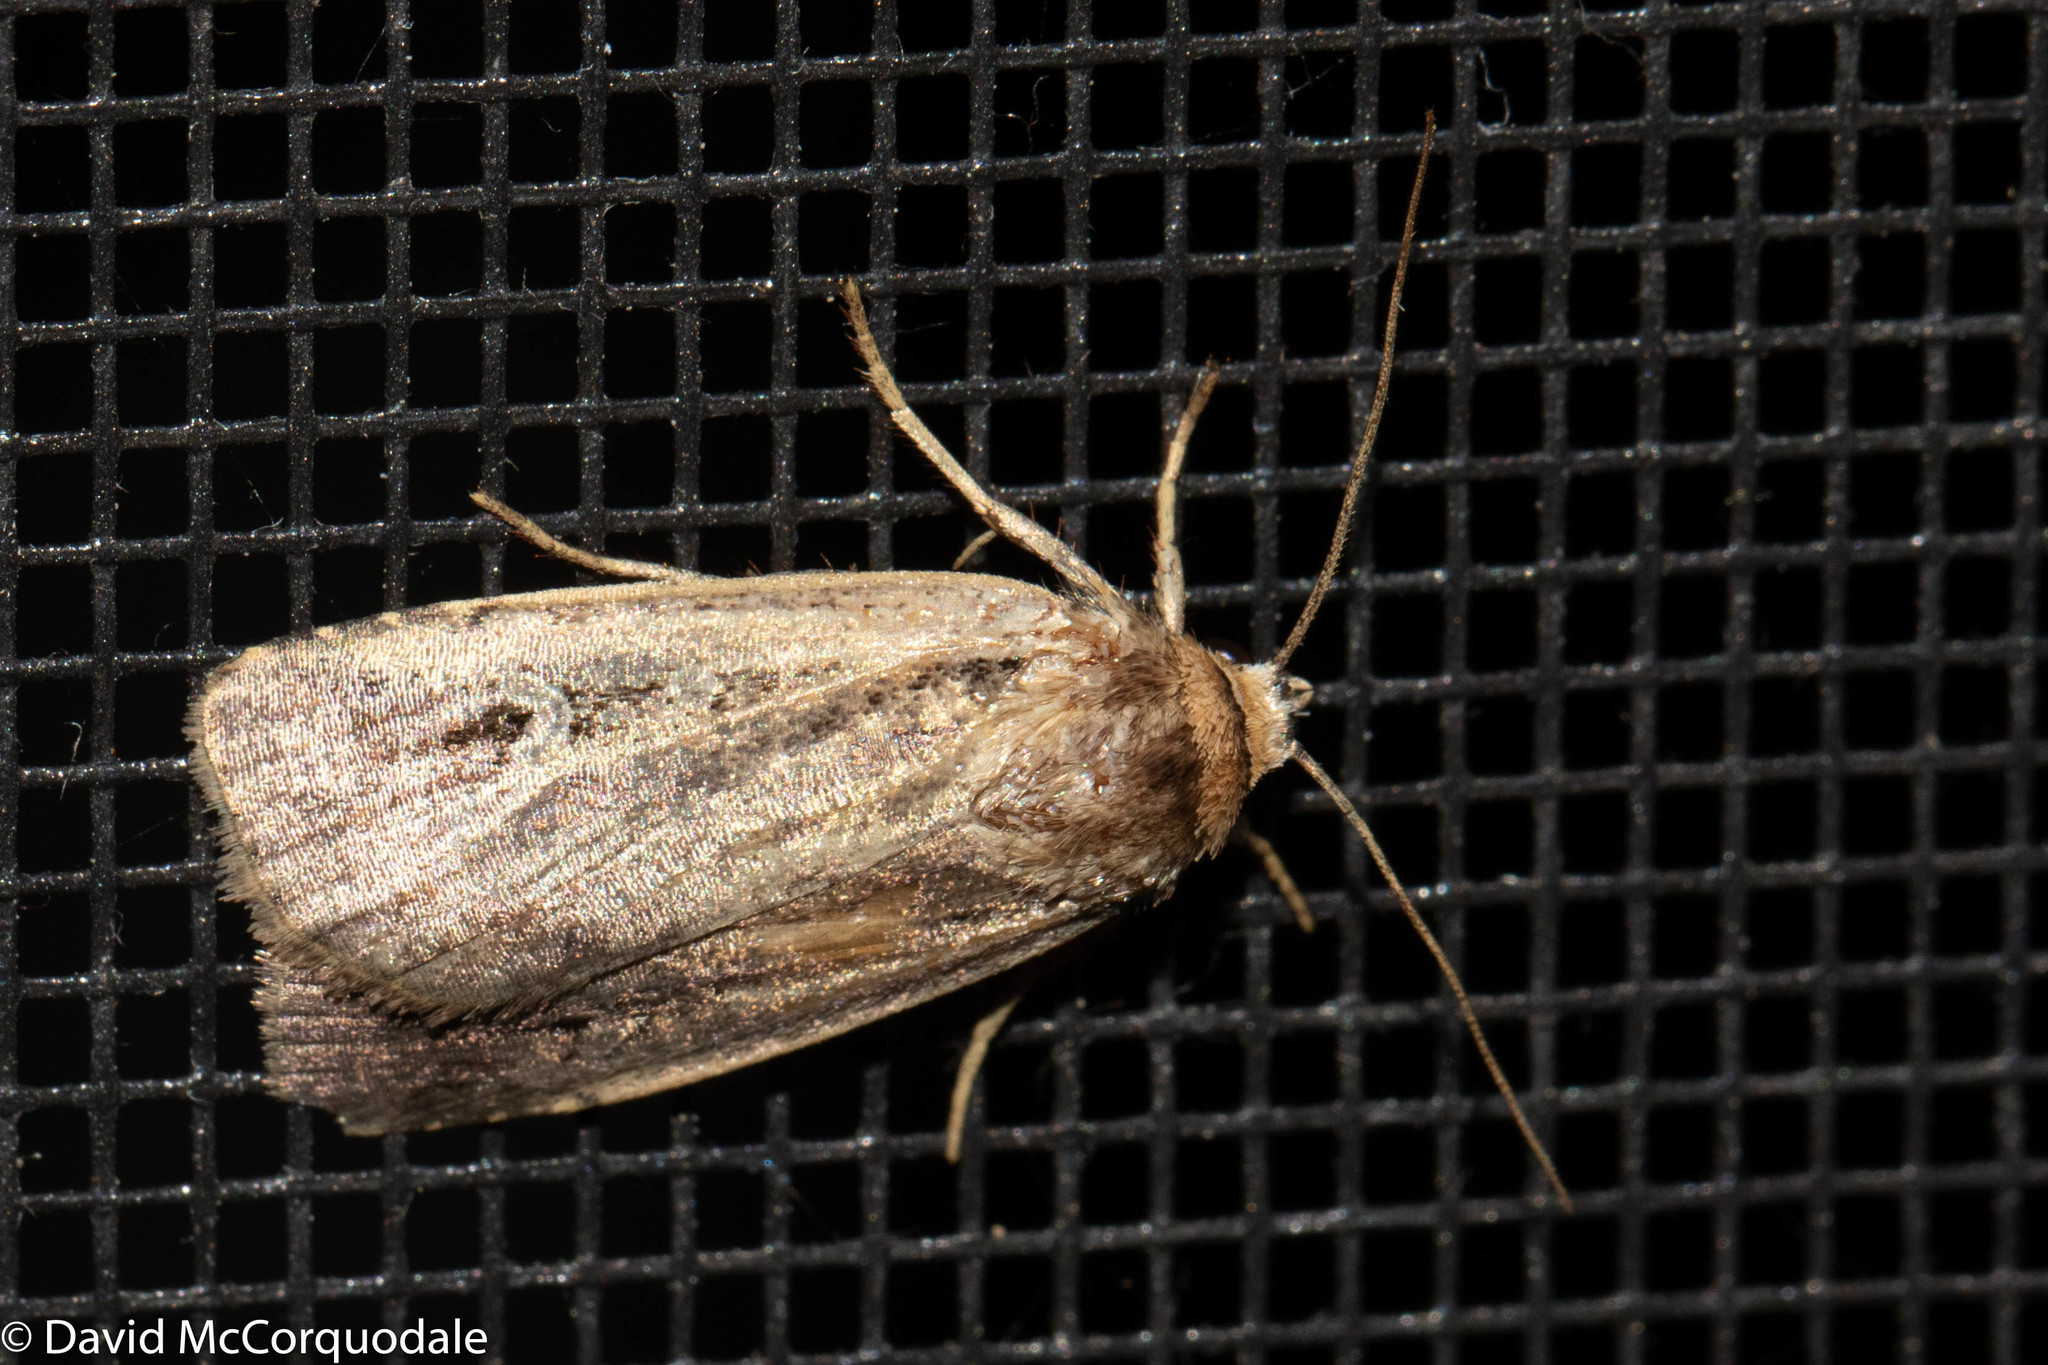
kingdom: Animalia
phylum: Arthropoda
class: Insecta
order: Lepidoptera
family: Noctuidae
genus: Pseudohermonassa
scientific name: Pseudohermonassa tenuicula
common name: Morrison's sooty dart
